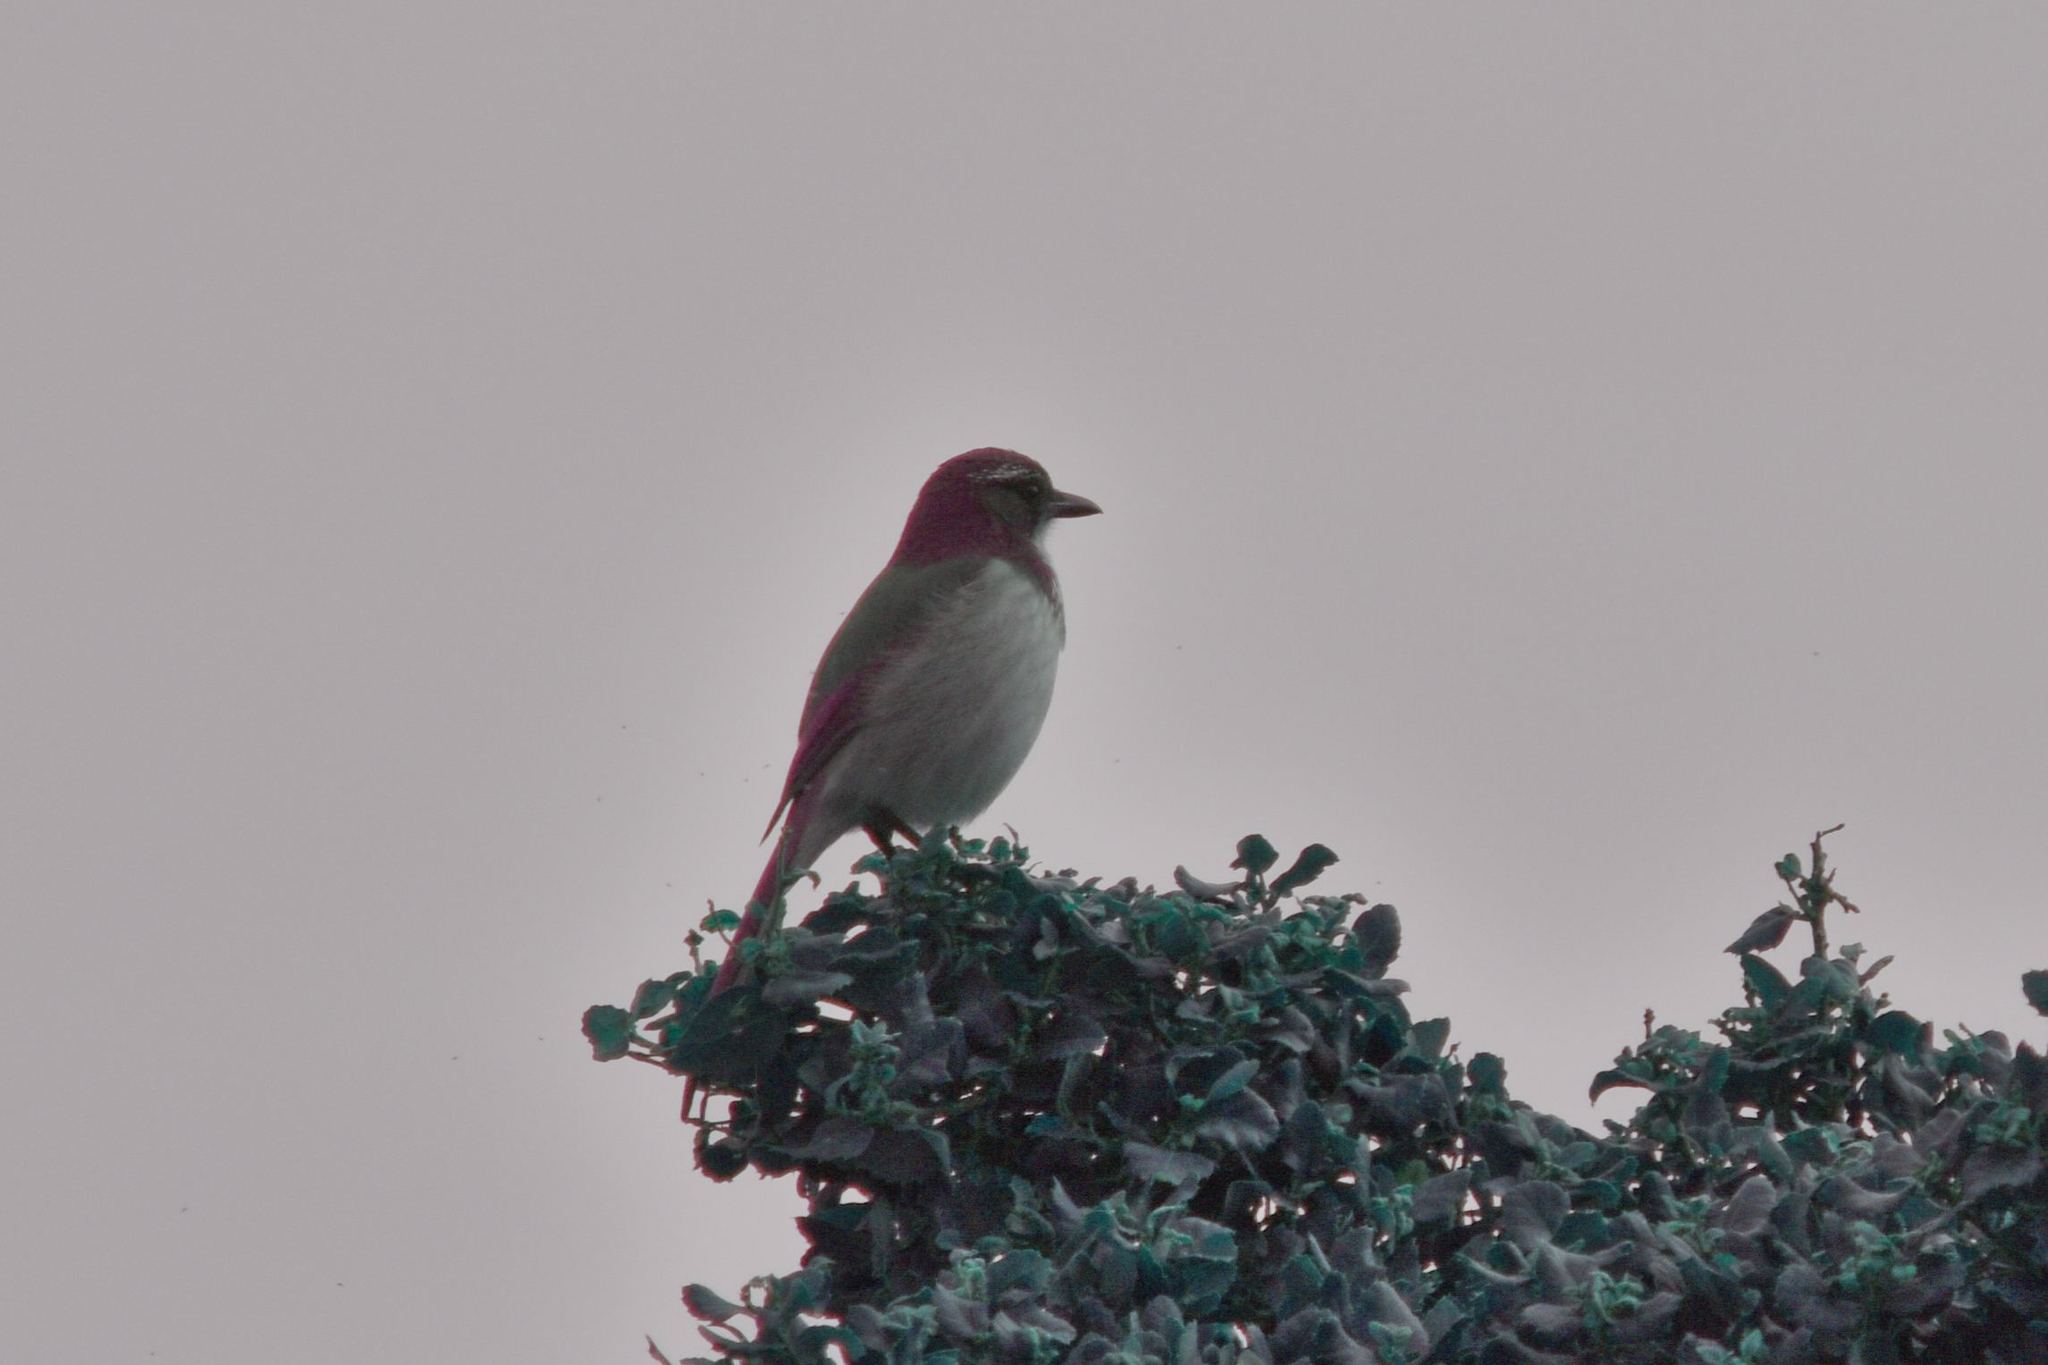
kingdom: Animalia
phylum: Chordata
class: Aves
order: Passeriformes
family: Corvidae
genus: Aphelocoma
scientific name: Aphelocoma californica
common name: California scrub-jay
